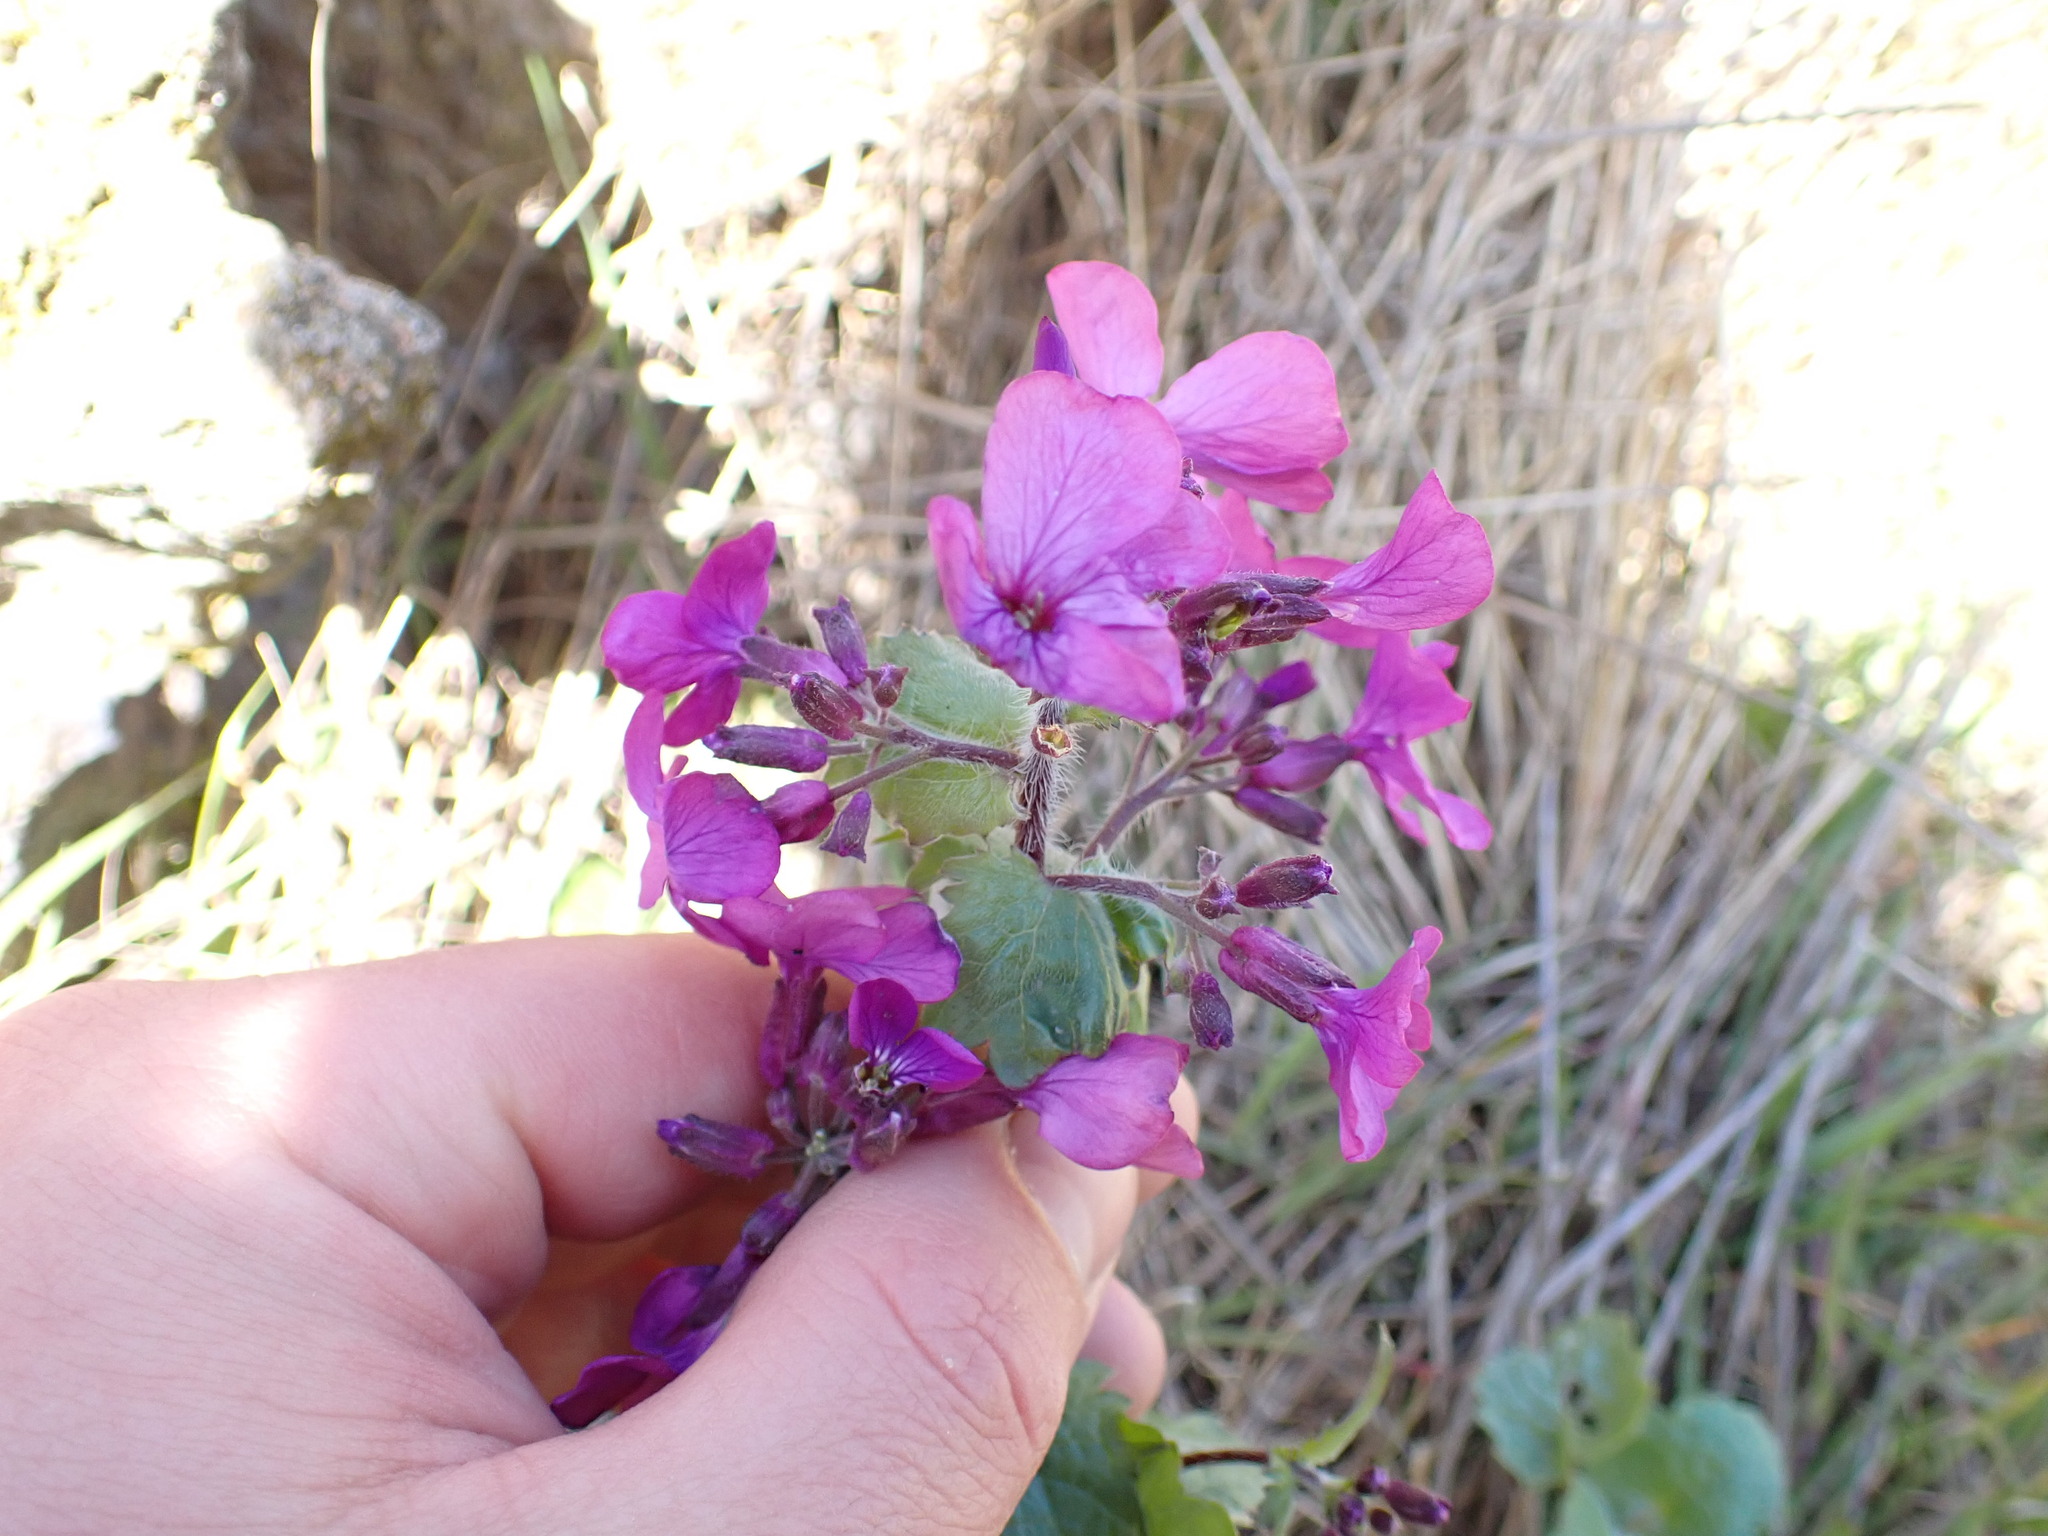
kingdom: Plantae
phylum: Tracheophyta
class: Magnoliopsida
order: Brassicales
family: Brassicaceae
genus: Lunaria
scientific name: Lunaria annua
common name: Honesty
